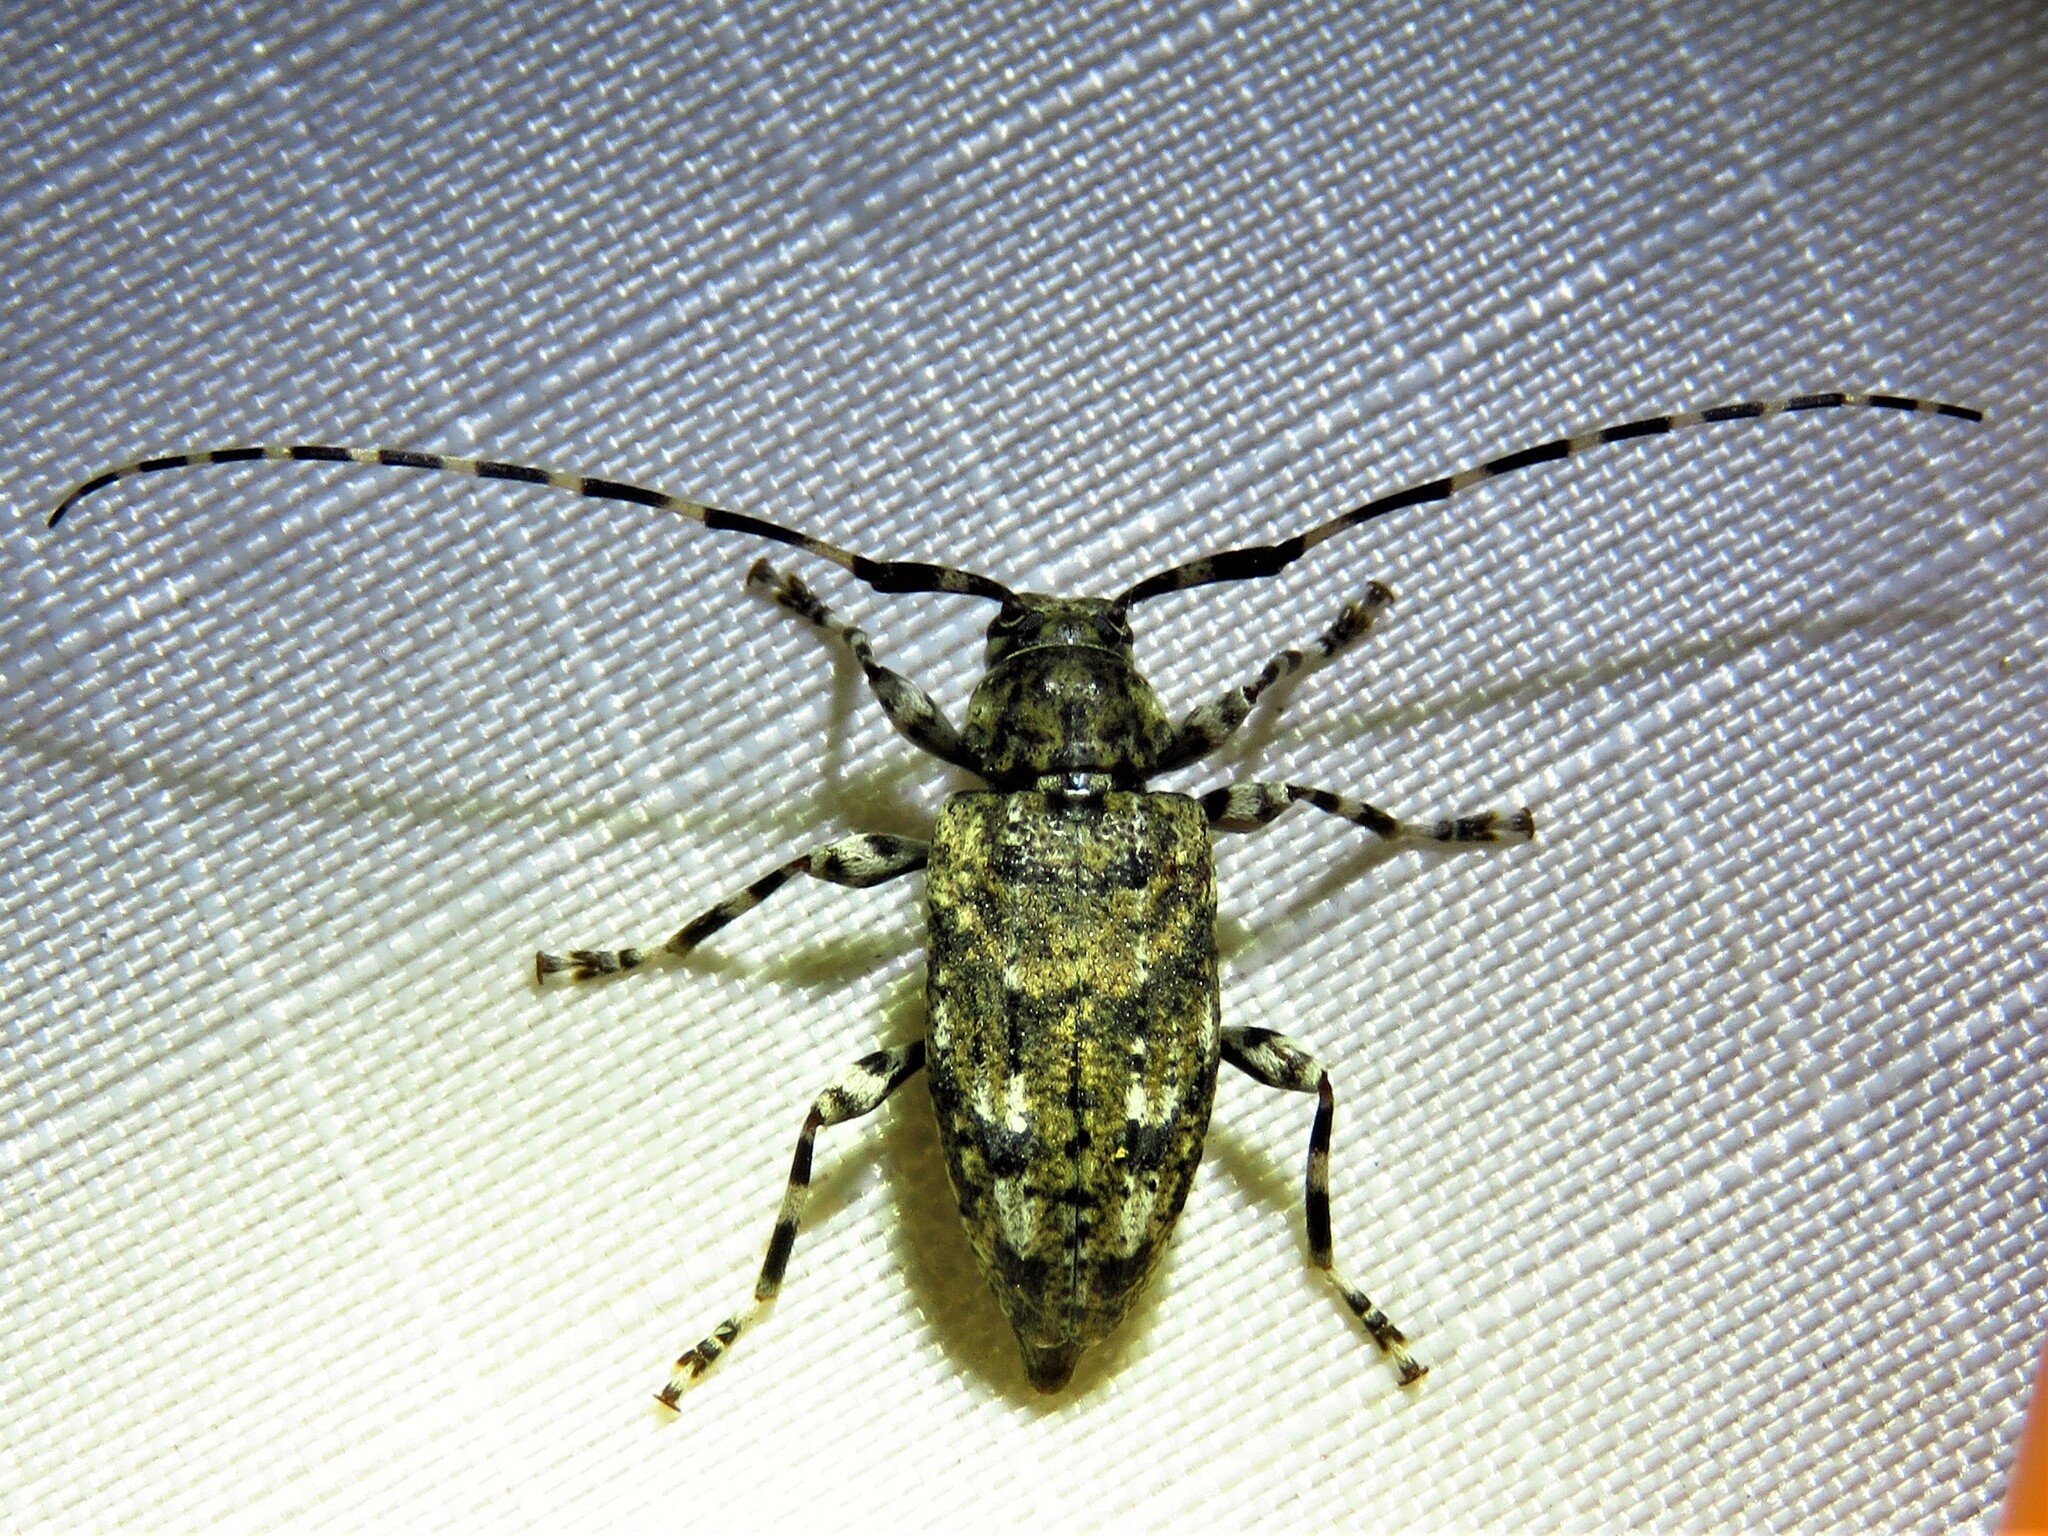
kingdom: Animalia
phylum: Arthropoda
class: Insecta
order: Coleoptera
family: Cerambycidae
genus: Astyleiopus
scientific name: Astyleiopus variegatus
